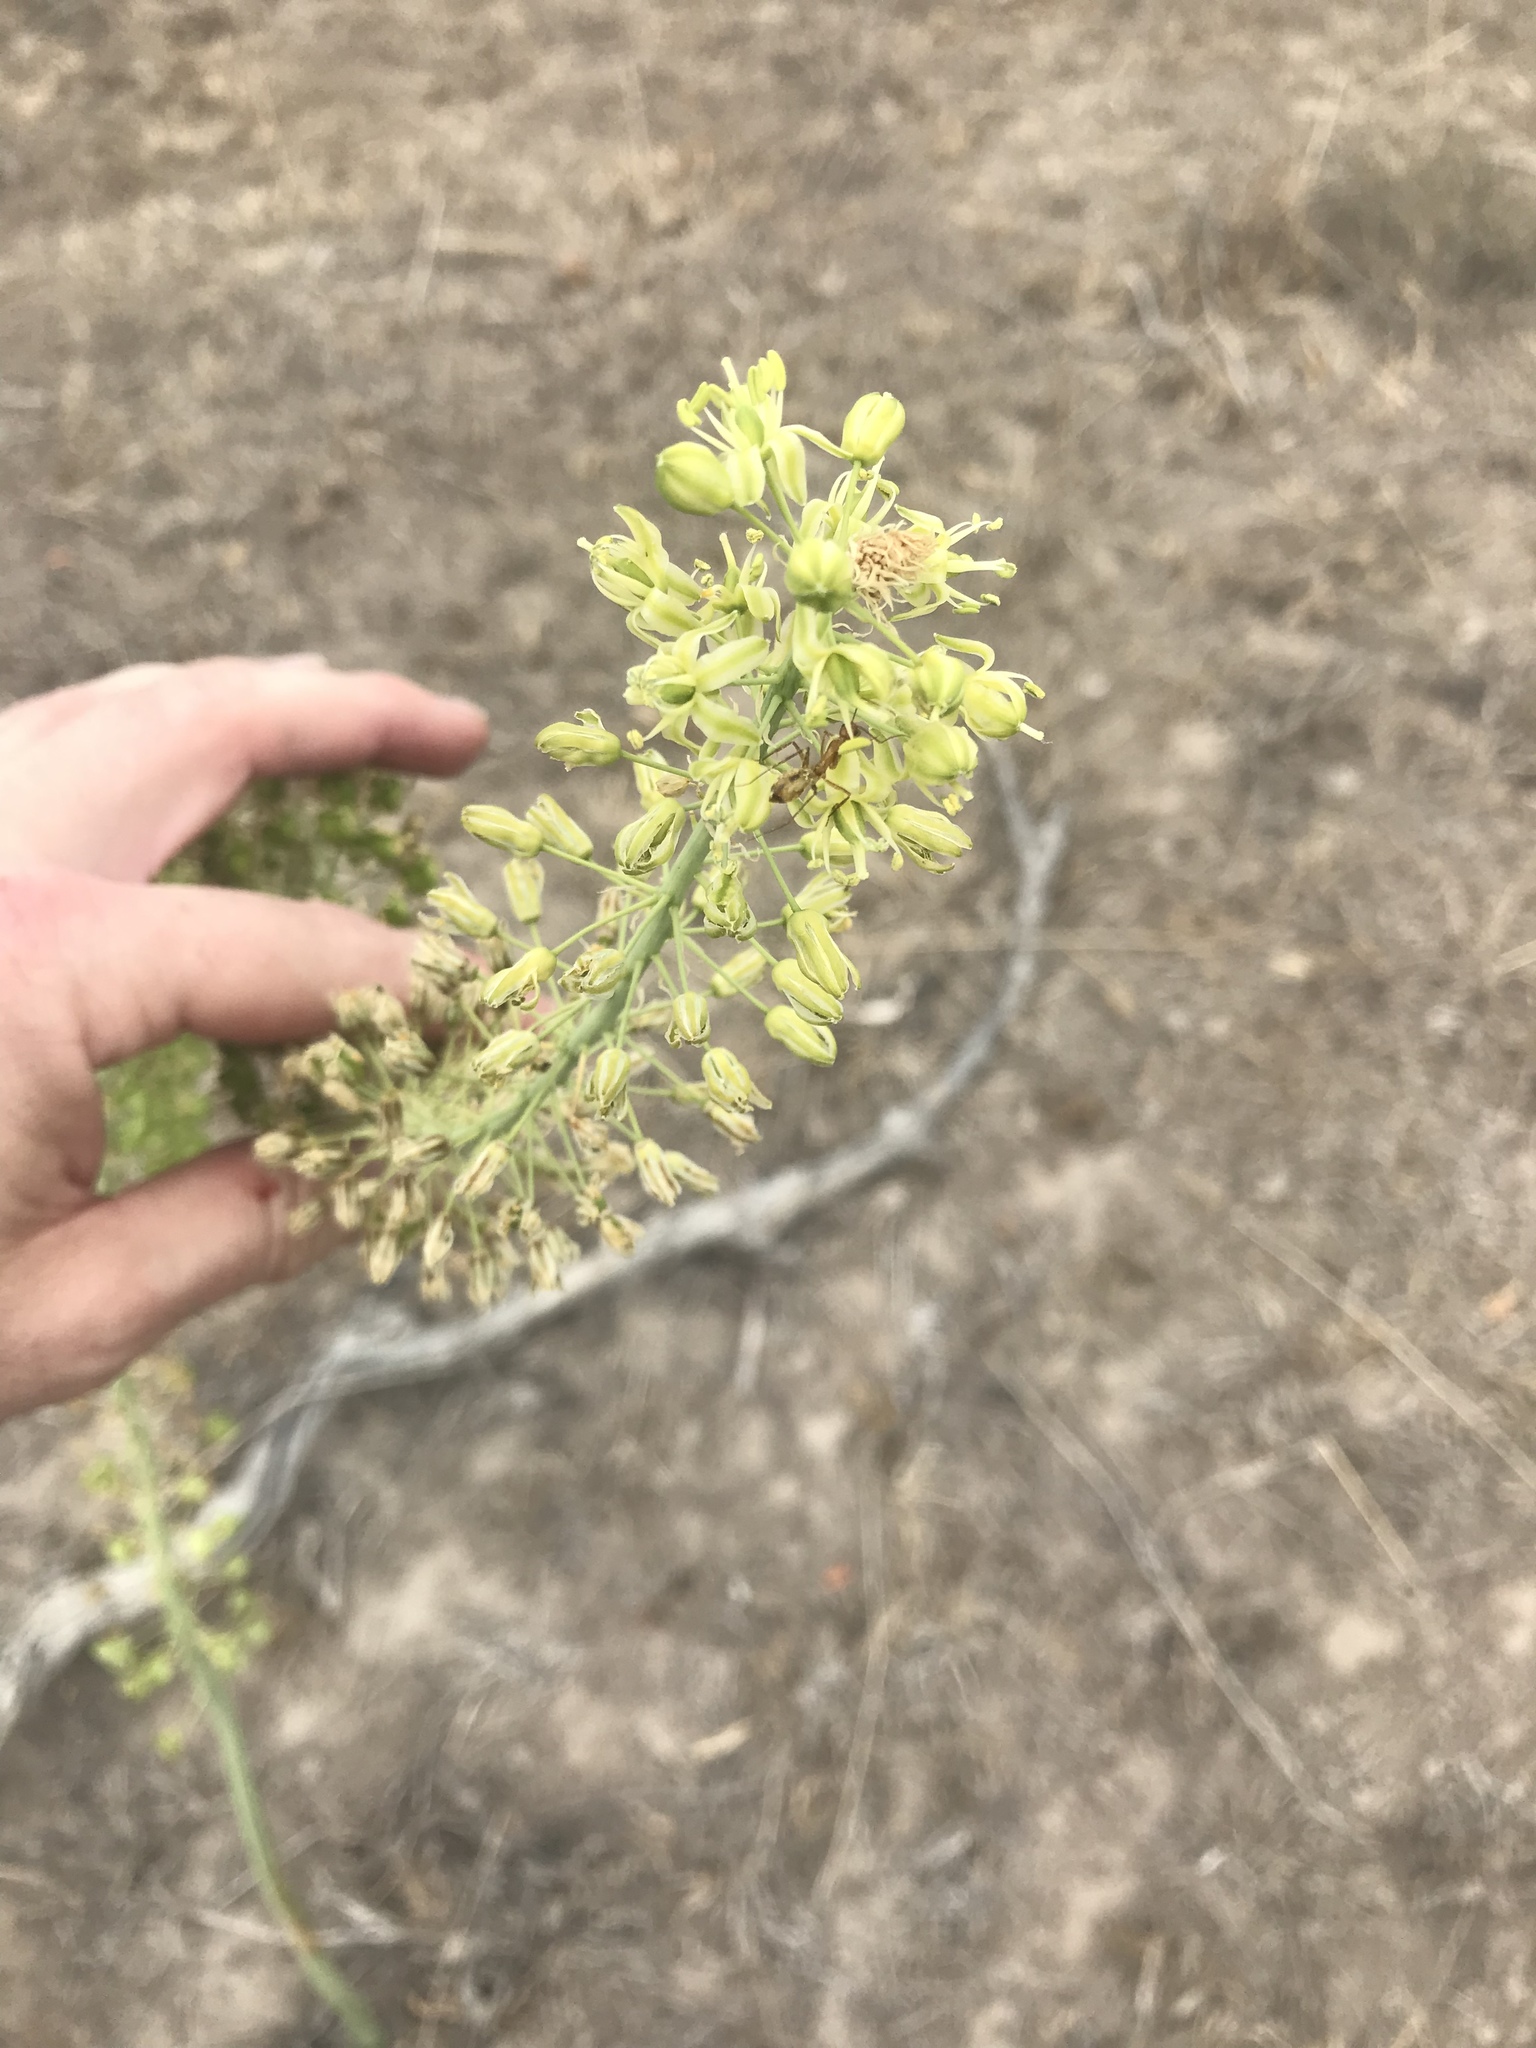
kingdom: Plantae
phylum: Tracheophyta
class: Liliopsida
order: Asparagales
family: Asparagaceae
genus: Drimia
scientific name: Drimia altissima
